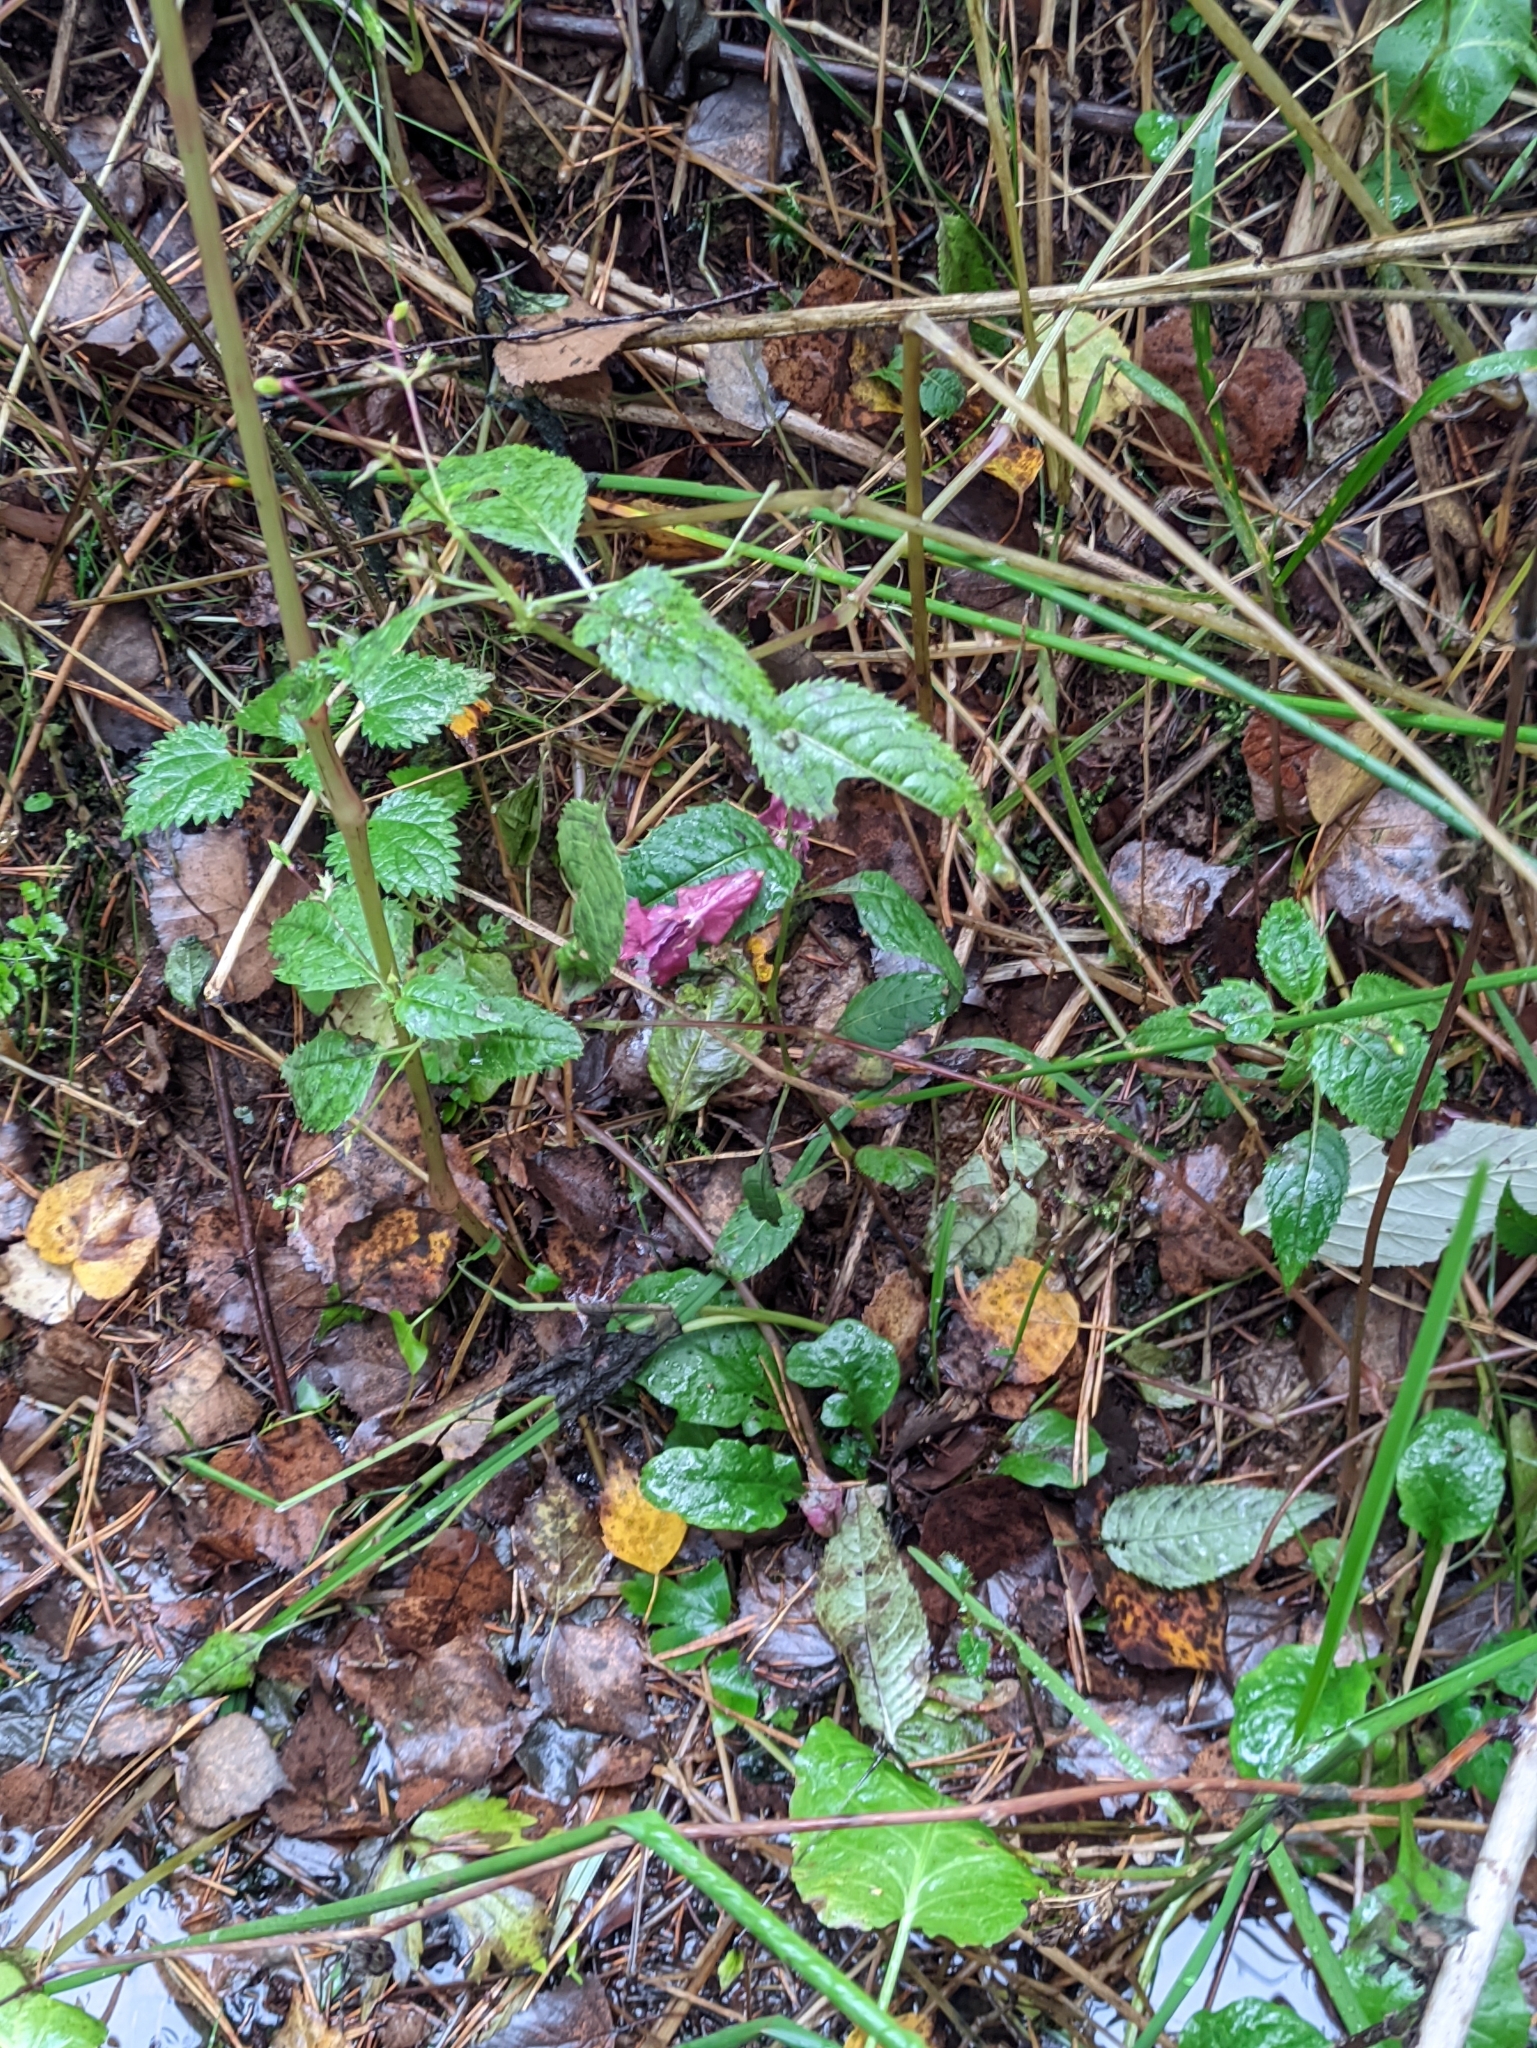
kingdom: Plantae
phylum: Tracheophyta
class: Magnoliopsida
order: Ericales
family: Balsaminaceae
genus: Impatiens
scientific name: Impatiens glandulifera
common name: Himalayan balsam
